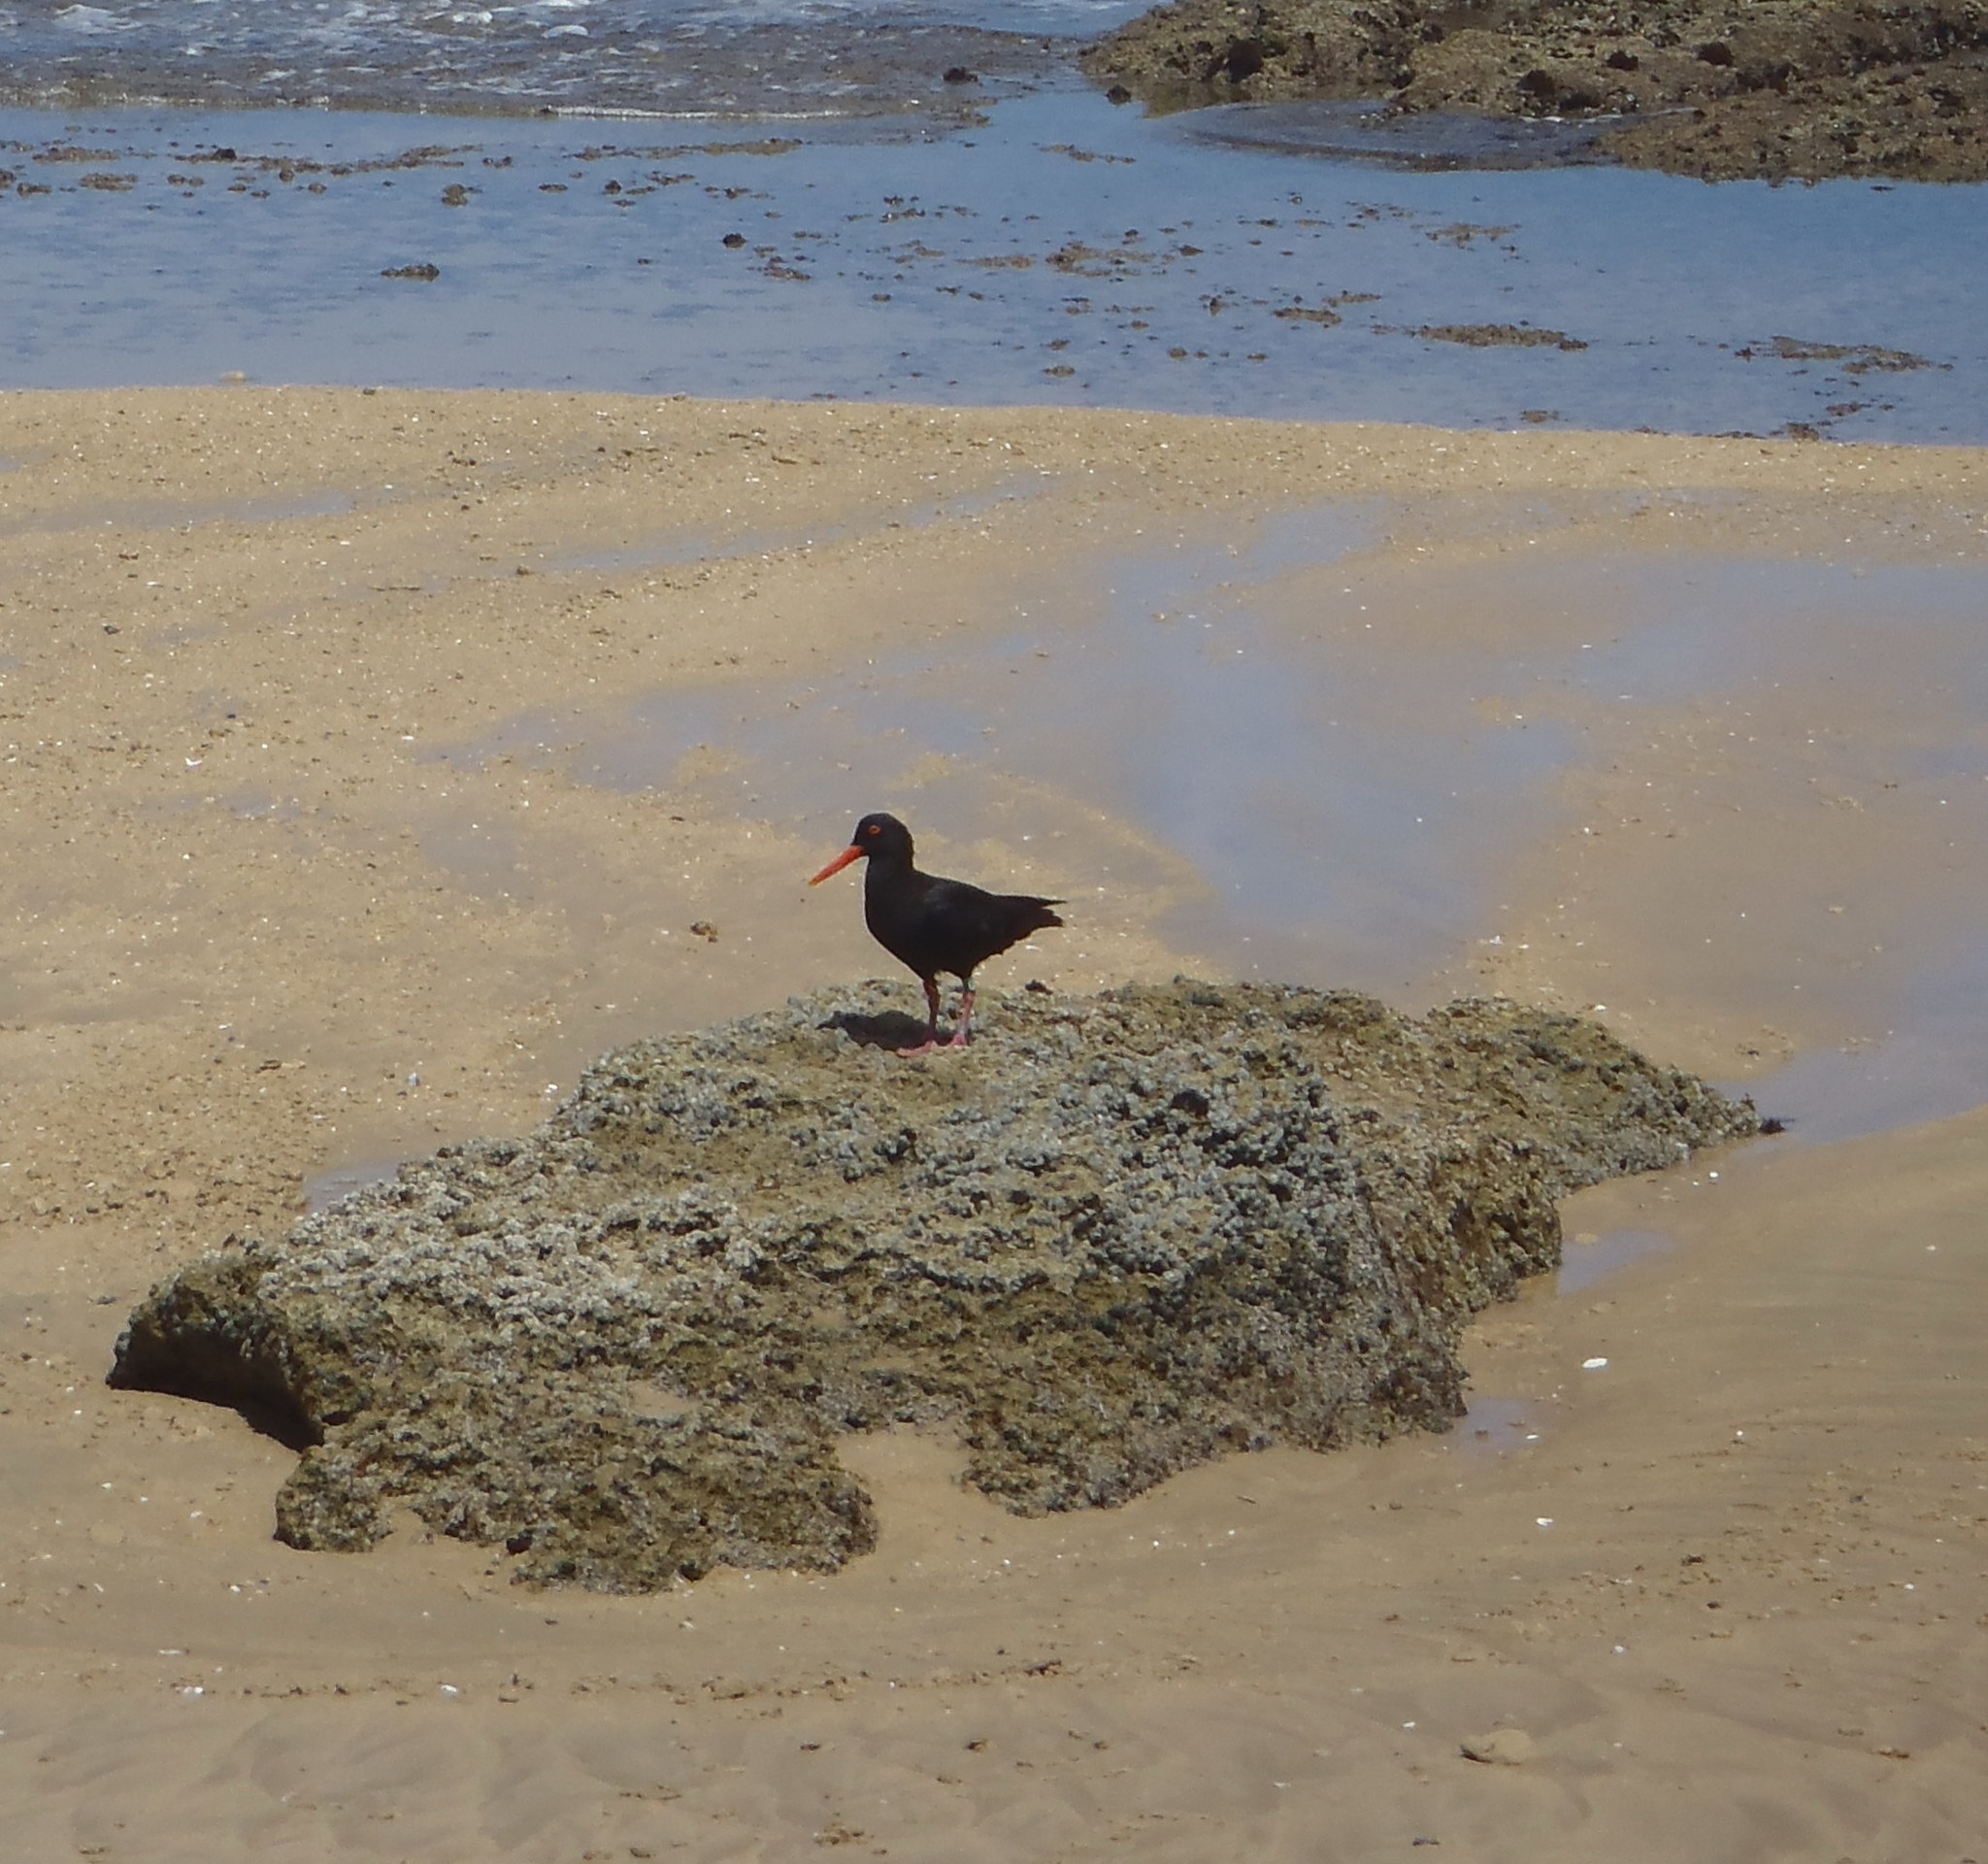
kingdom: Animalia
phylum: Chordata
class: Aves
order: Charadriiformes
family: Haematopodidae
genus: Haematopus
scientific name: Haematopus moquini
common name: African oystercatcher
